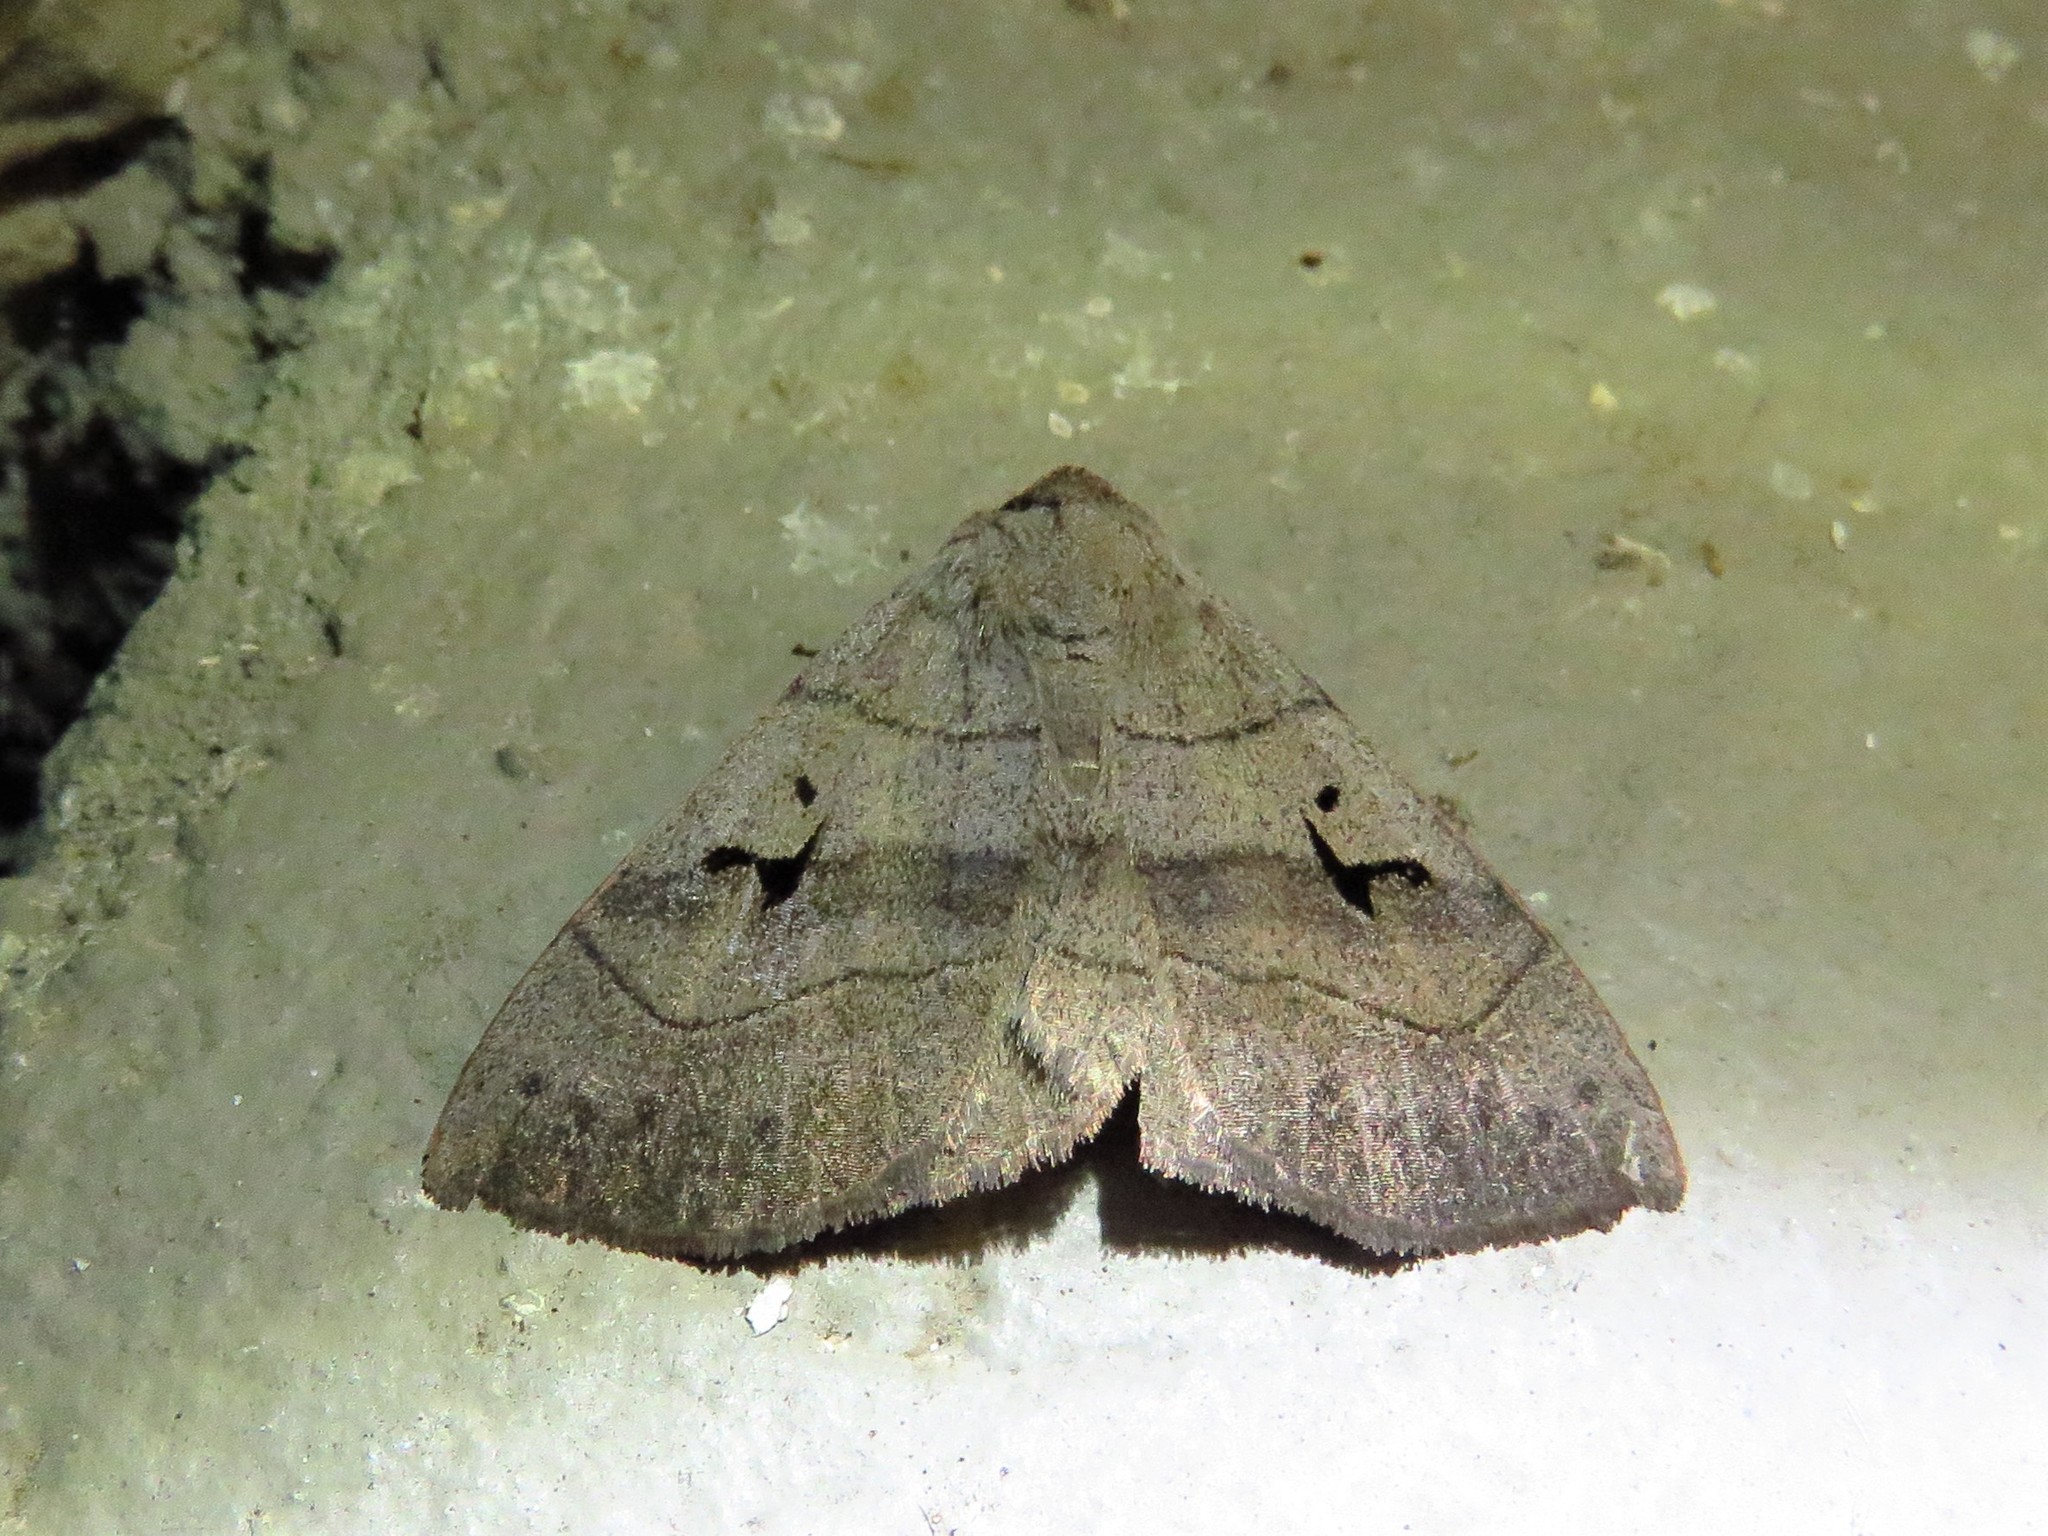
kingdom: Animalia
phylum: Arthropoda
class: Insecta
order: Lepidoptera
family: Erebidae
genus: Panopoda
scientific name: Panopoda carneicosta
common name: Brown panopoda moth
